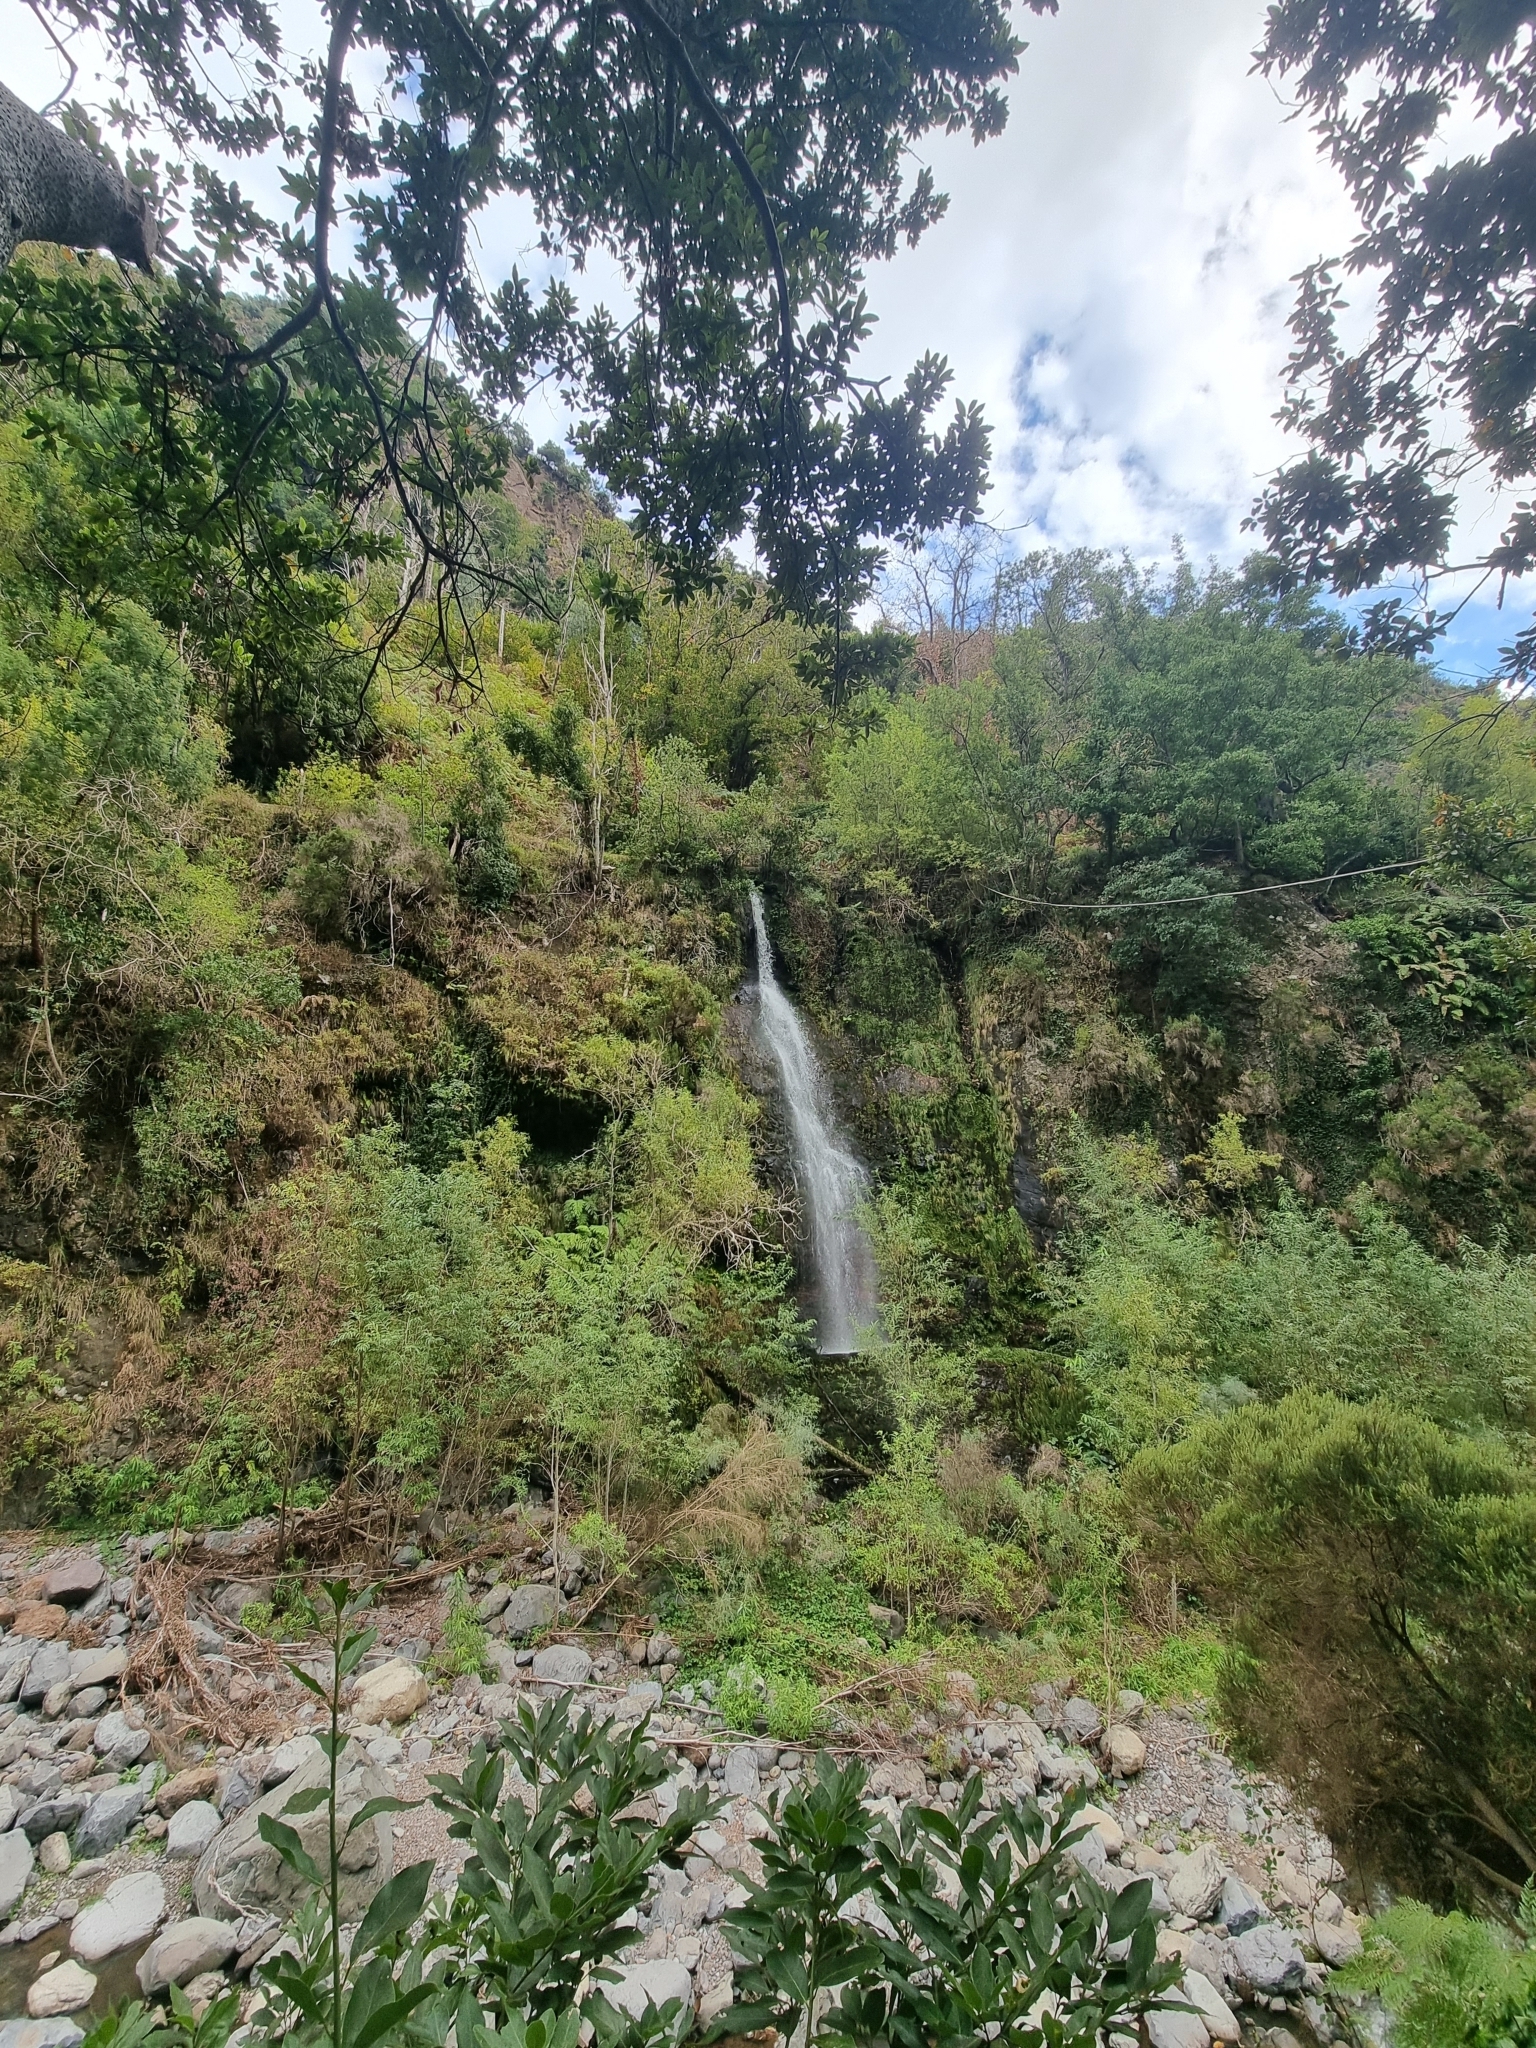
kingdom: Plantae
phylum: Tracheophyta
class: Magnoliopsida
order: Malpighiales
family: Salicaceae
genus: Salix
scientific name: Salix canariensis
